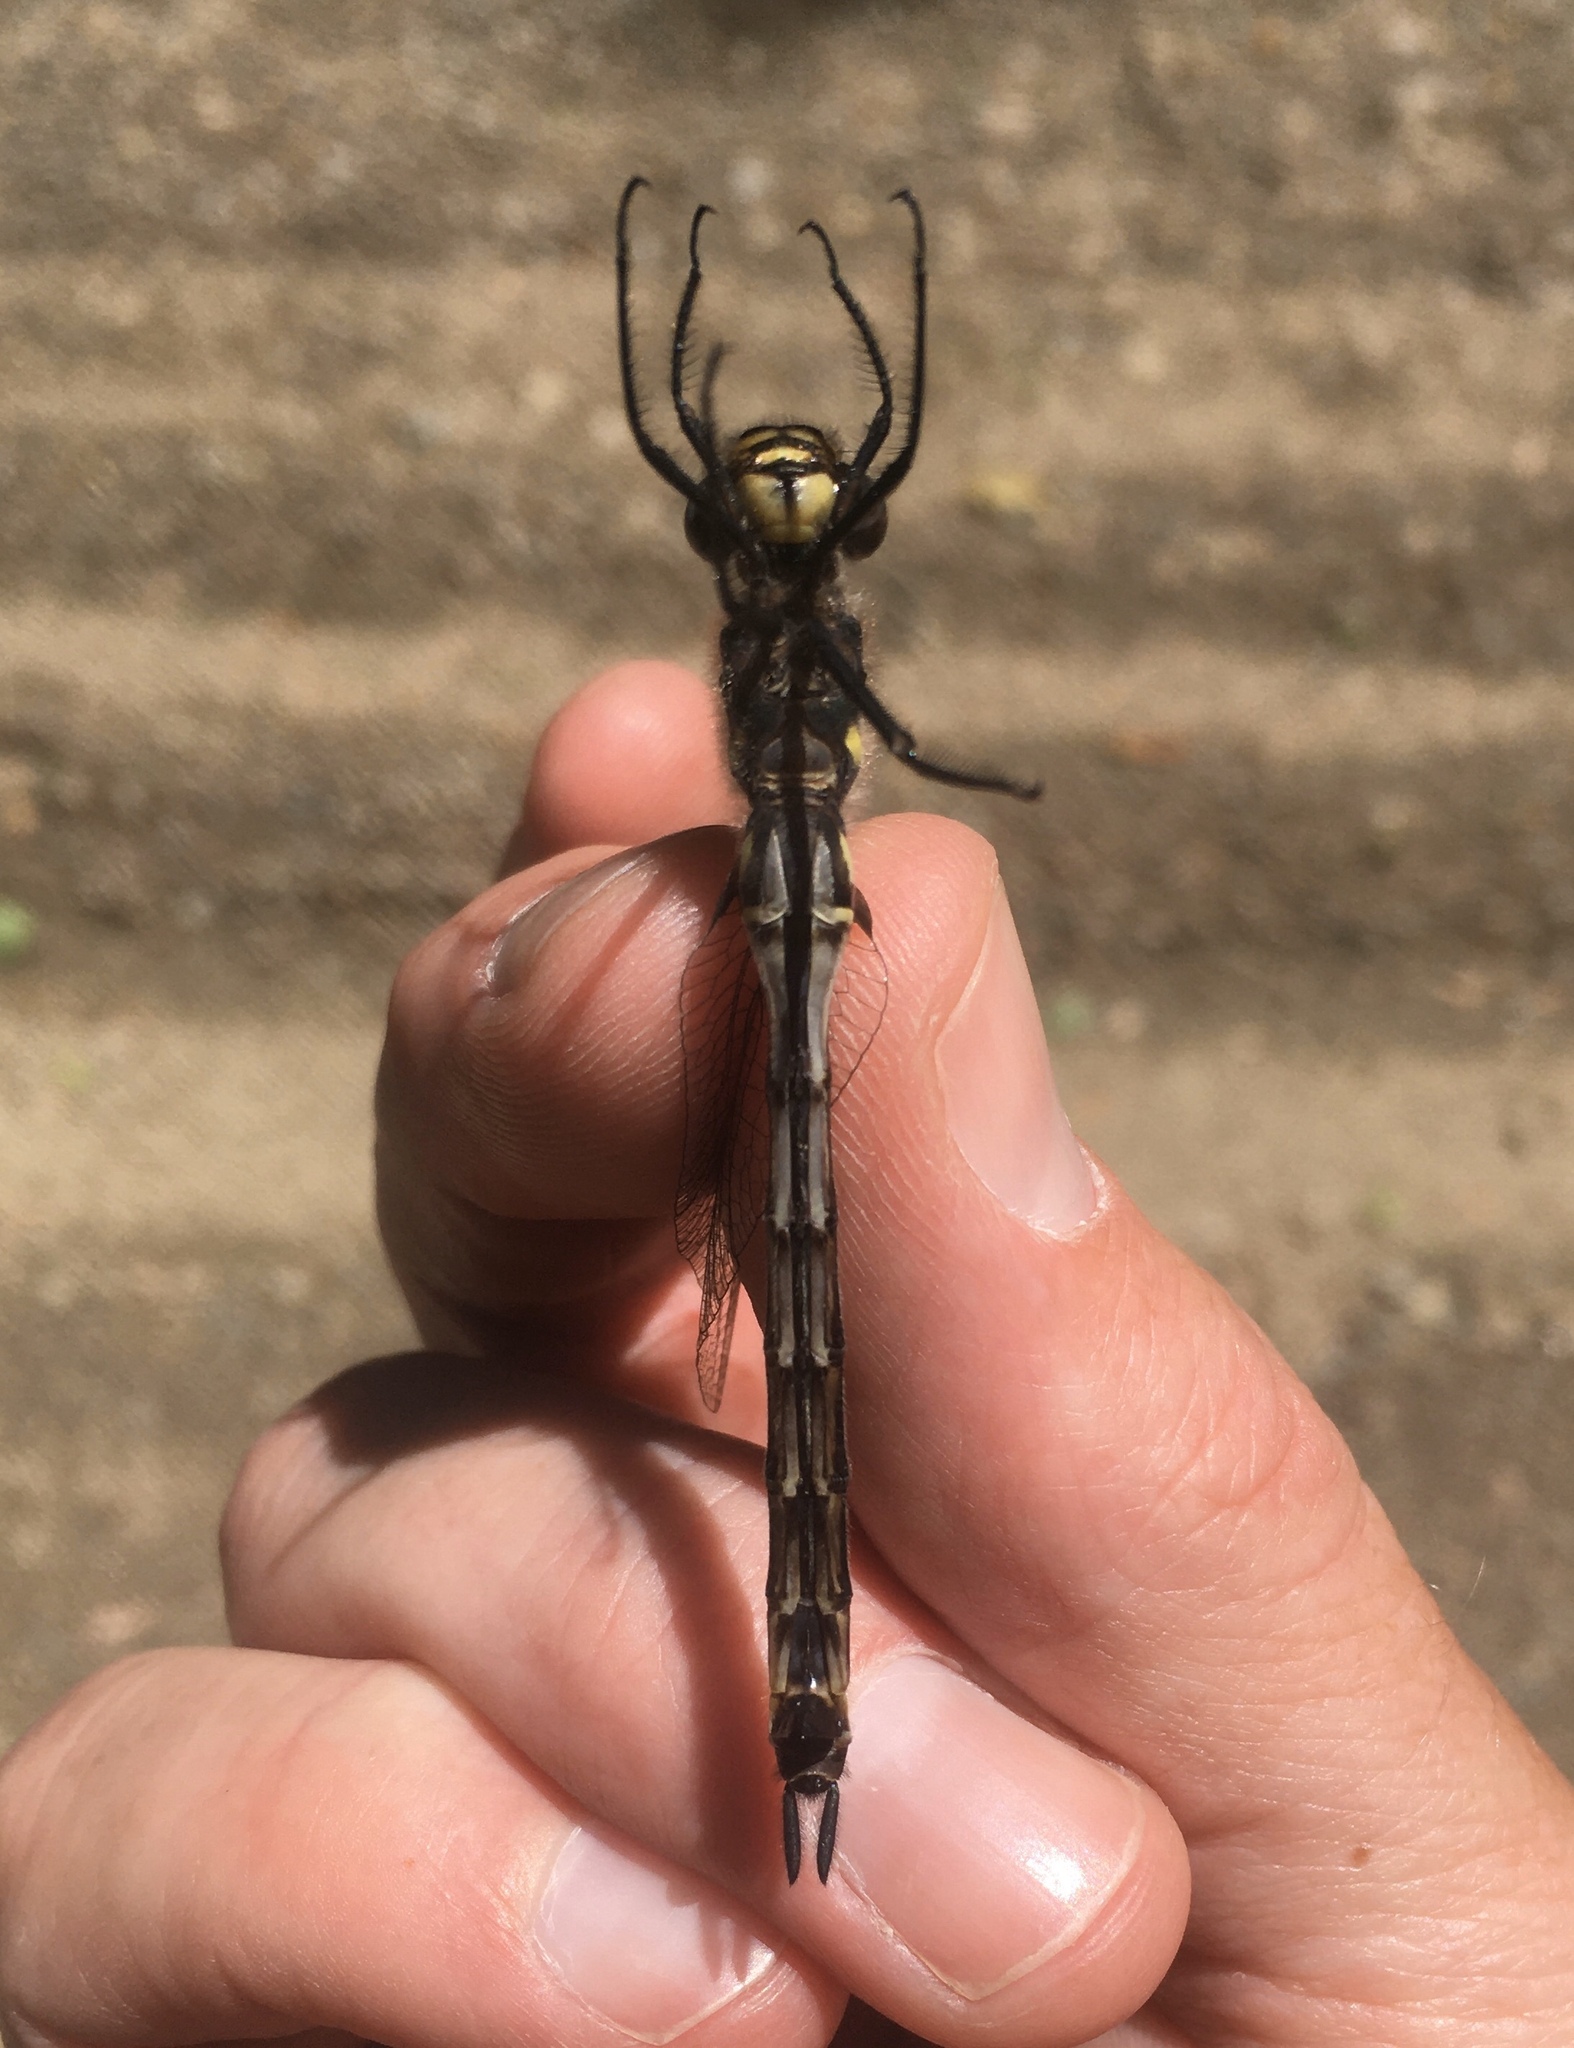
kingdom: Animalia
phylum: Arthropoda
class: Insecta
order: Odonata
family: Corduliidae
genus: Somatochlora
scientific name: Somatochlora elongata
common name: Ski-tipped emerald
